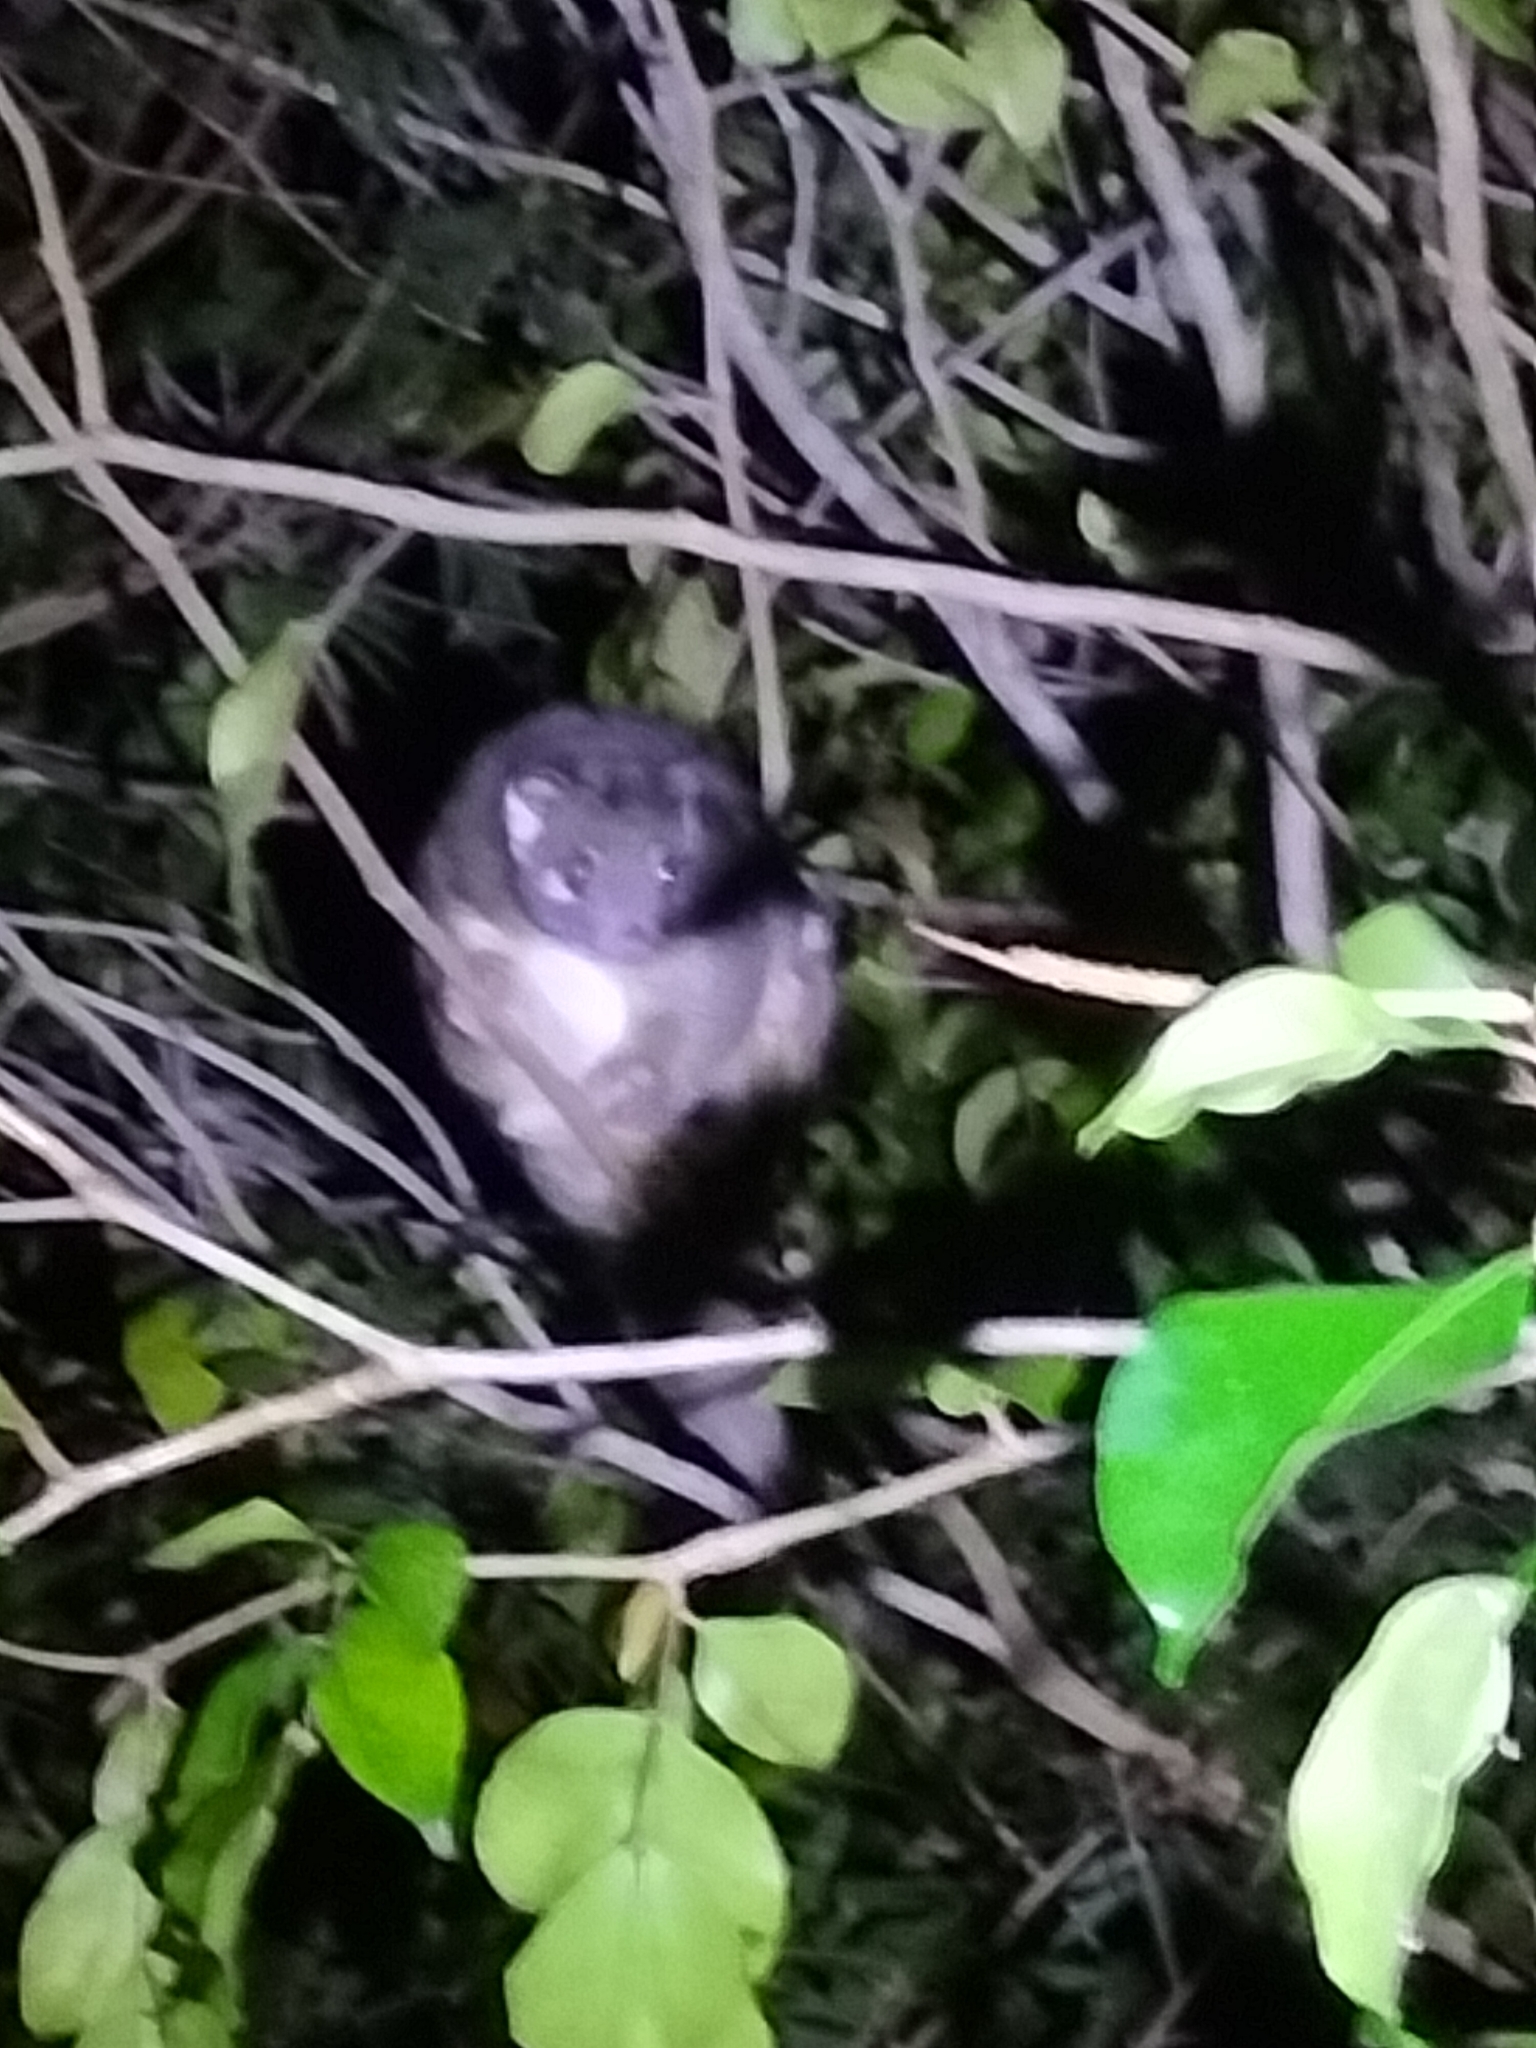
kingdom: Animalia
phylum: Chordata
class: Mammalia
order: Diprotodontia
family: Pseudocheiridae
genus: Pseudochirops
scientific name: Pseudochirops archeri
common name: Green ringtail
